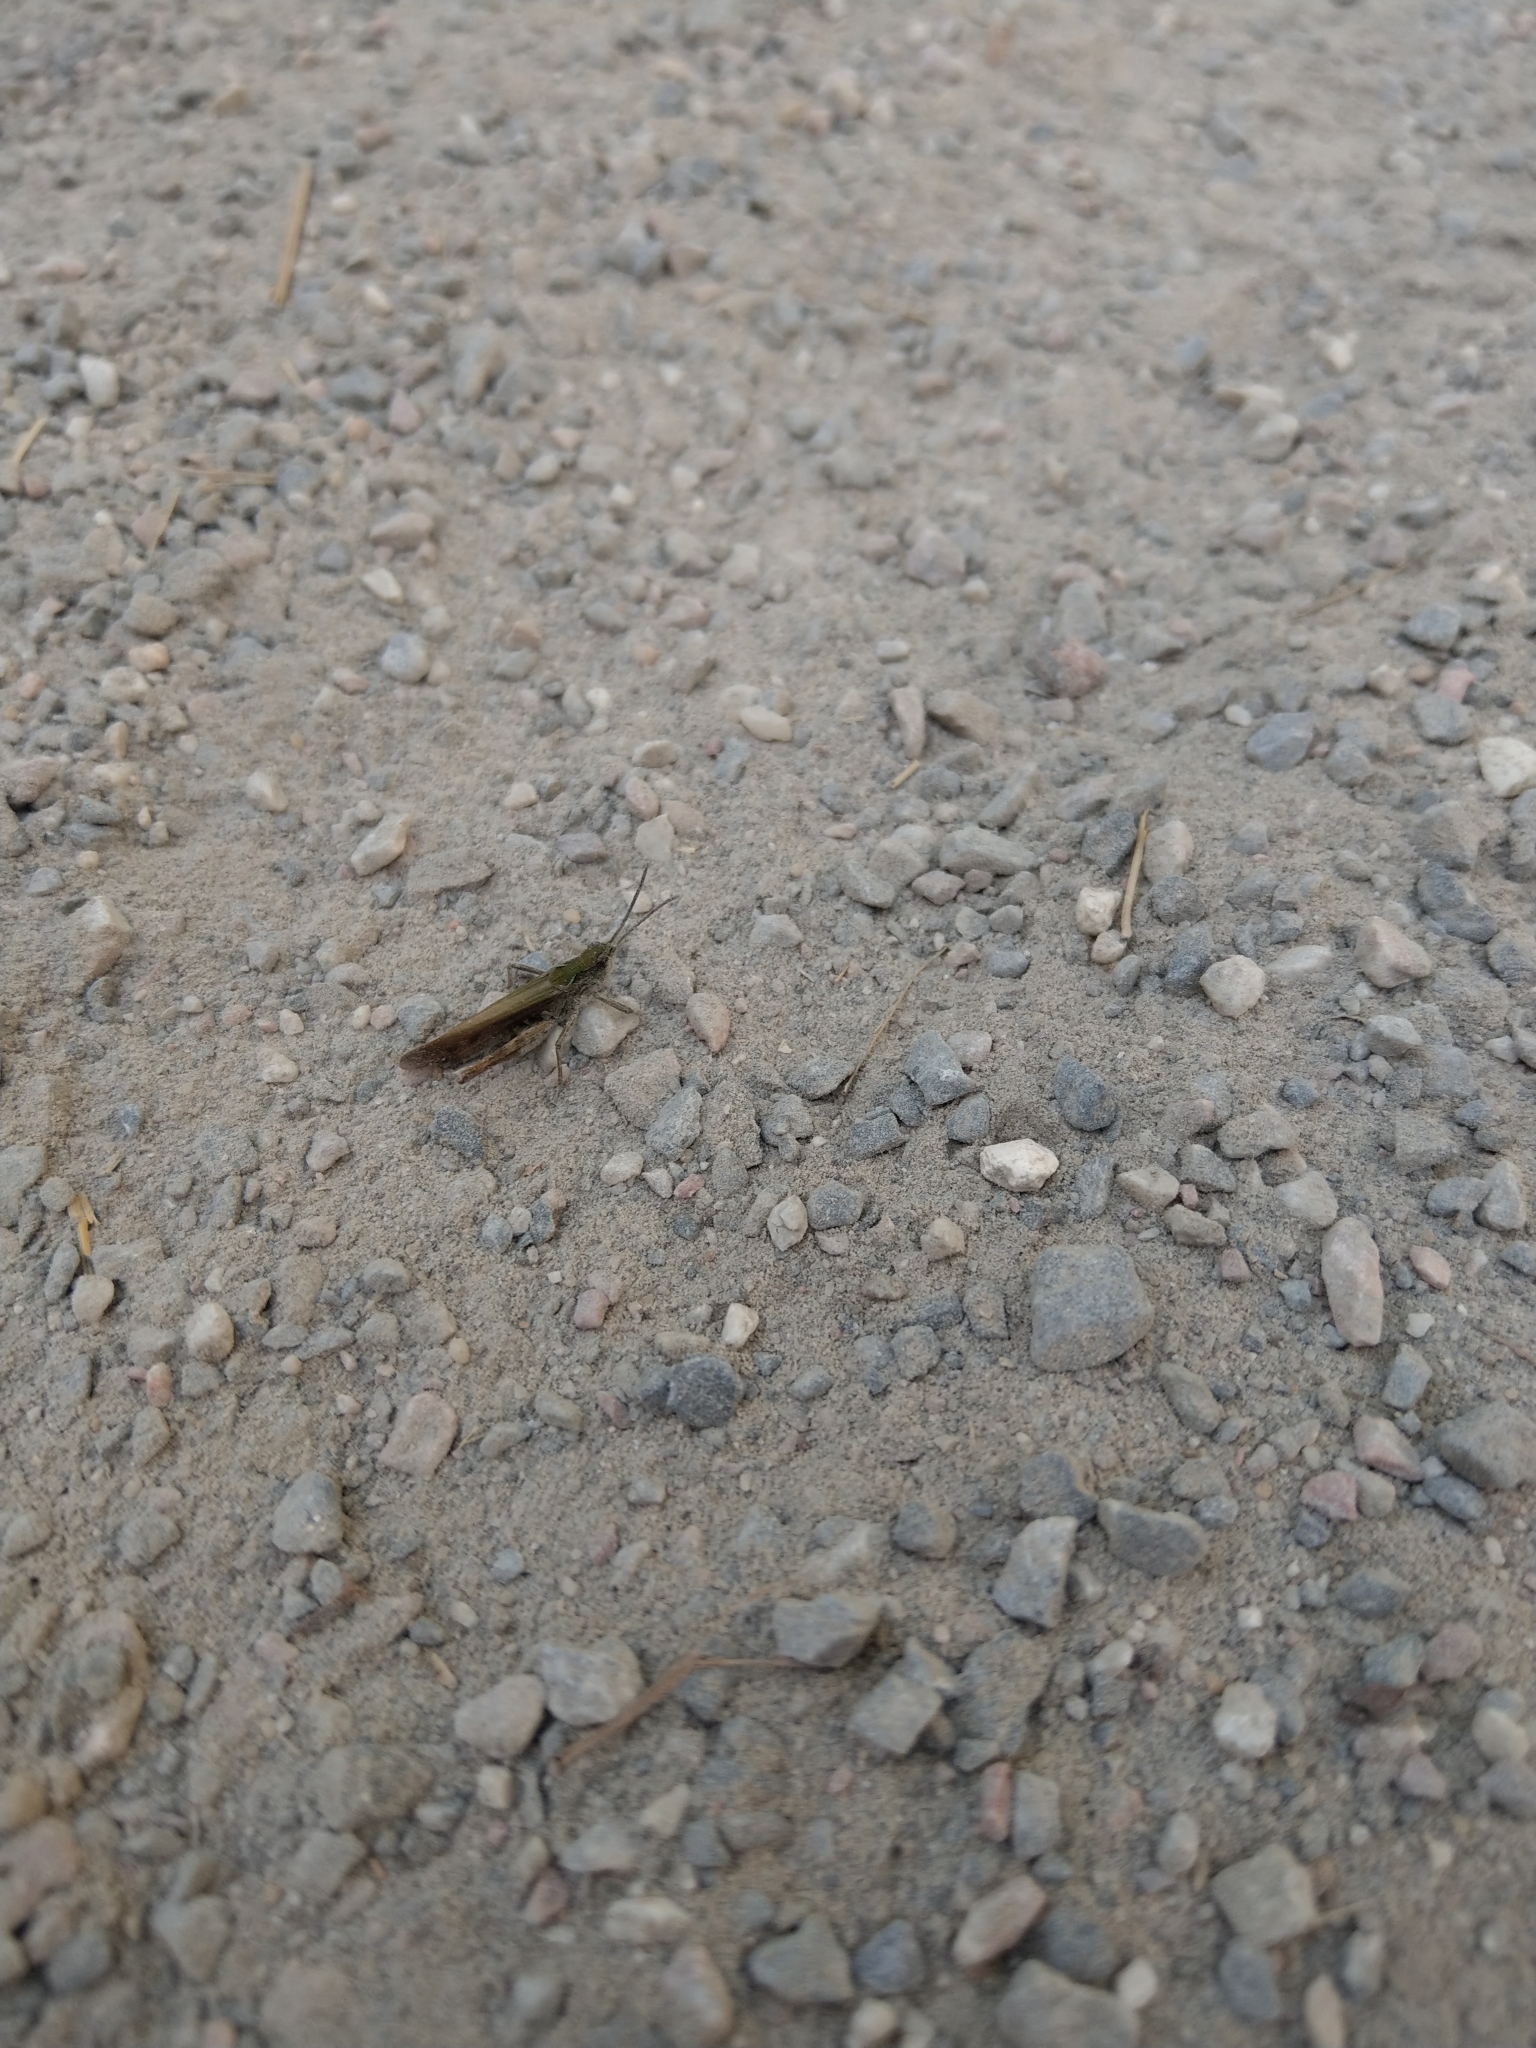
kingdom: Animalia
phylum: Arthropoda
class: Insecta
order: Orthoptera
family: Acrididae
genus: Chorthippus
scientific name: Chorthippus biguttulus
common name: Bow-winged grasshopper
